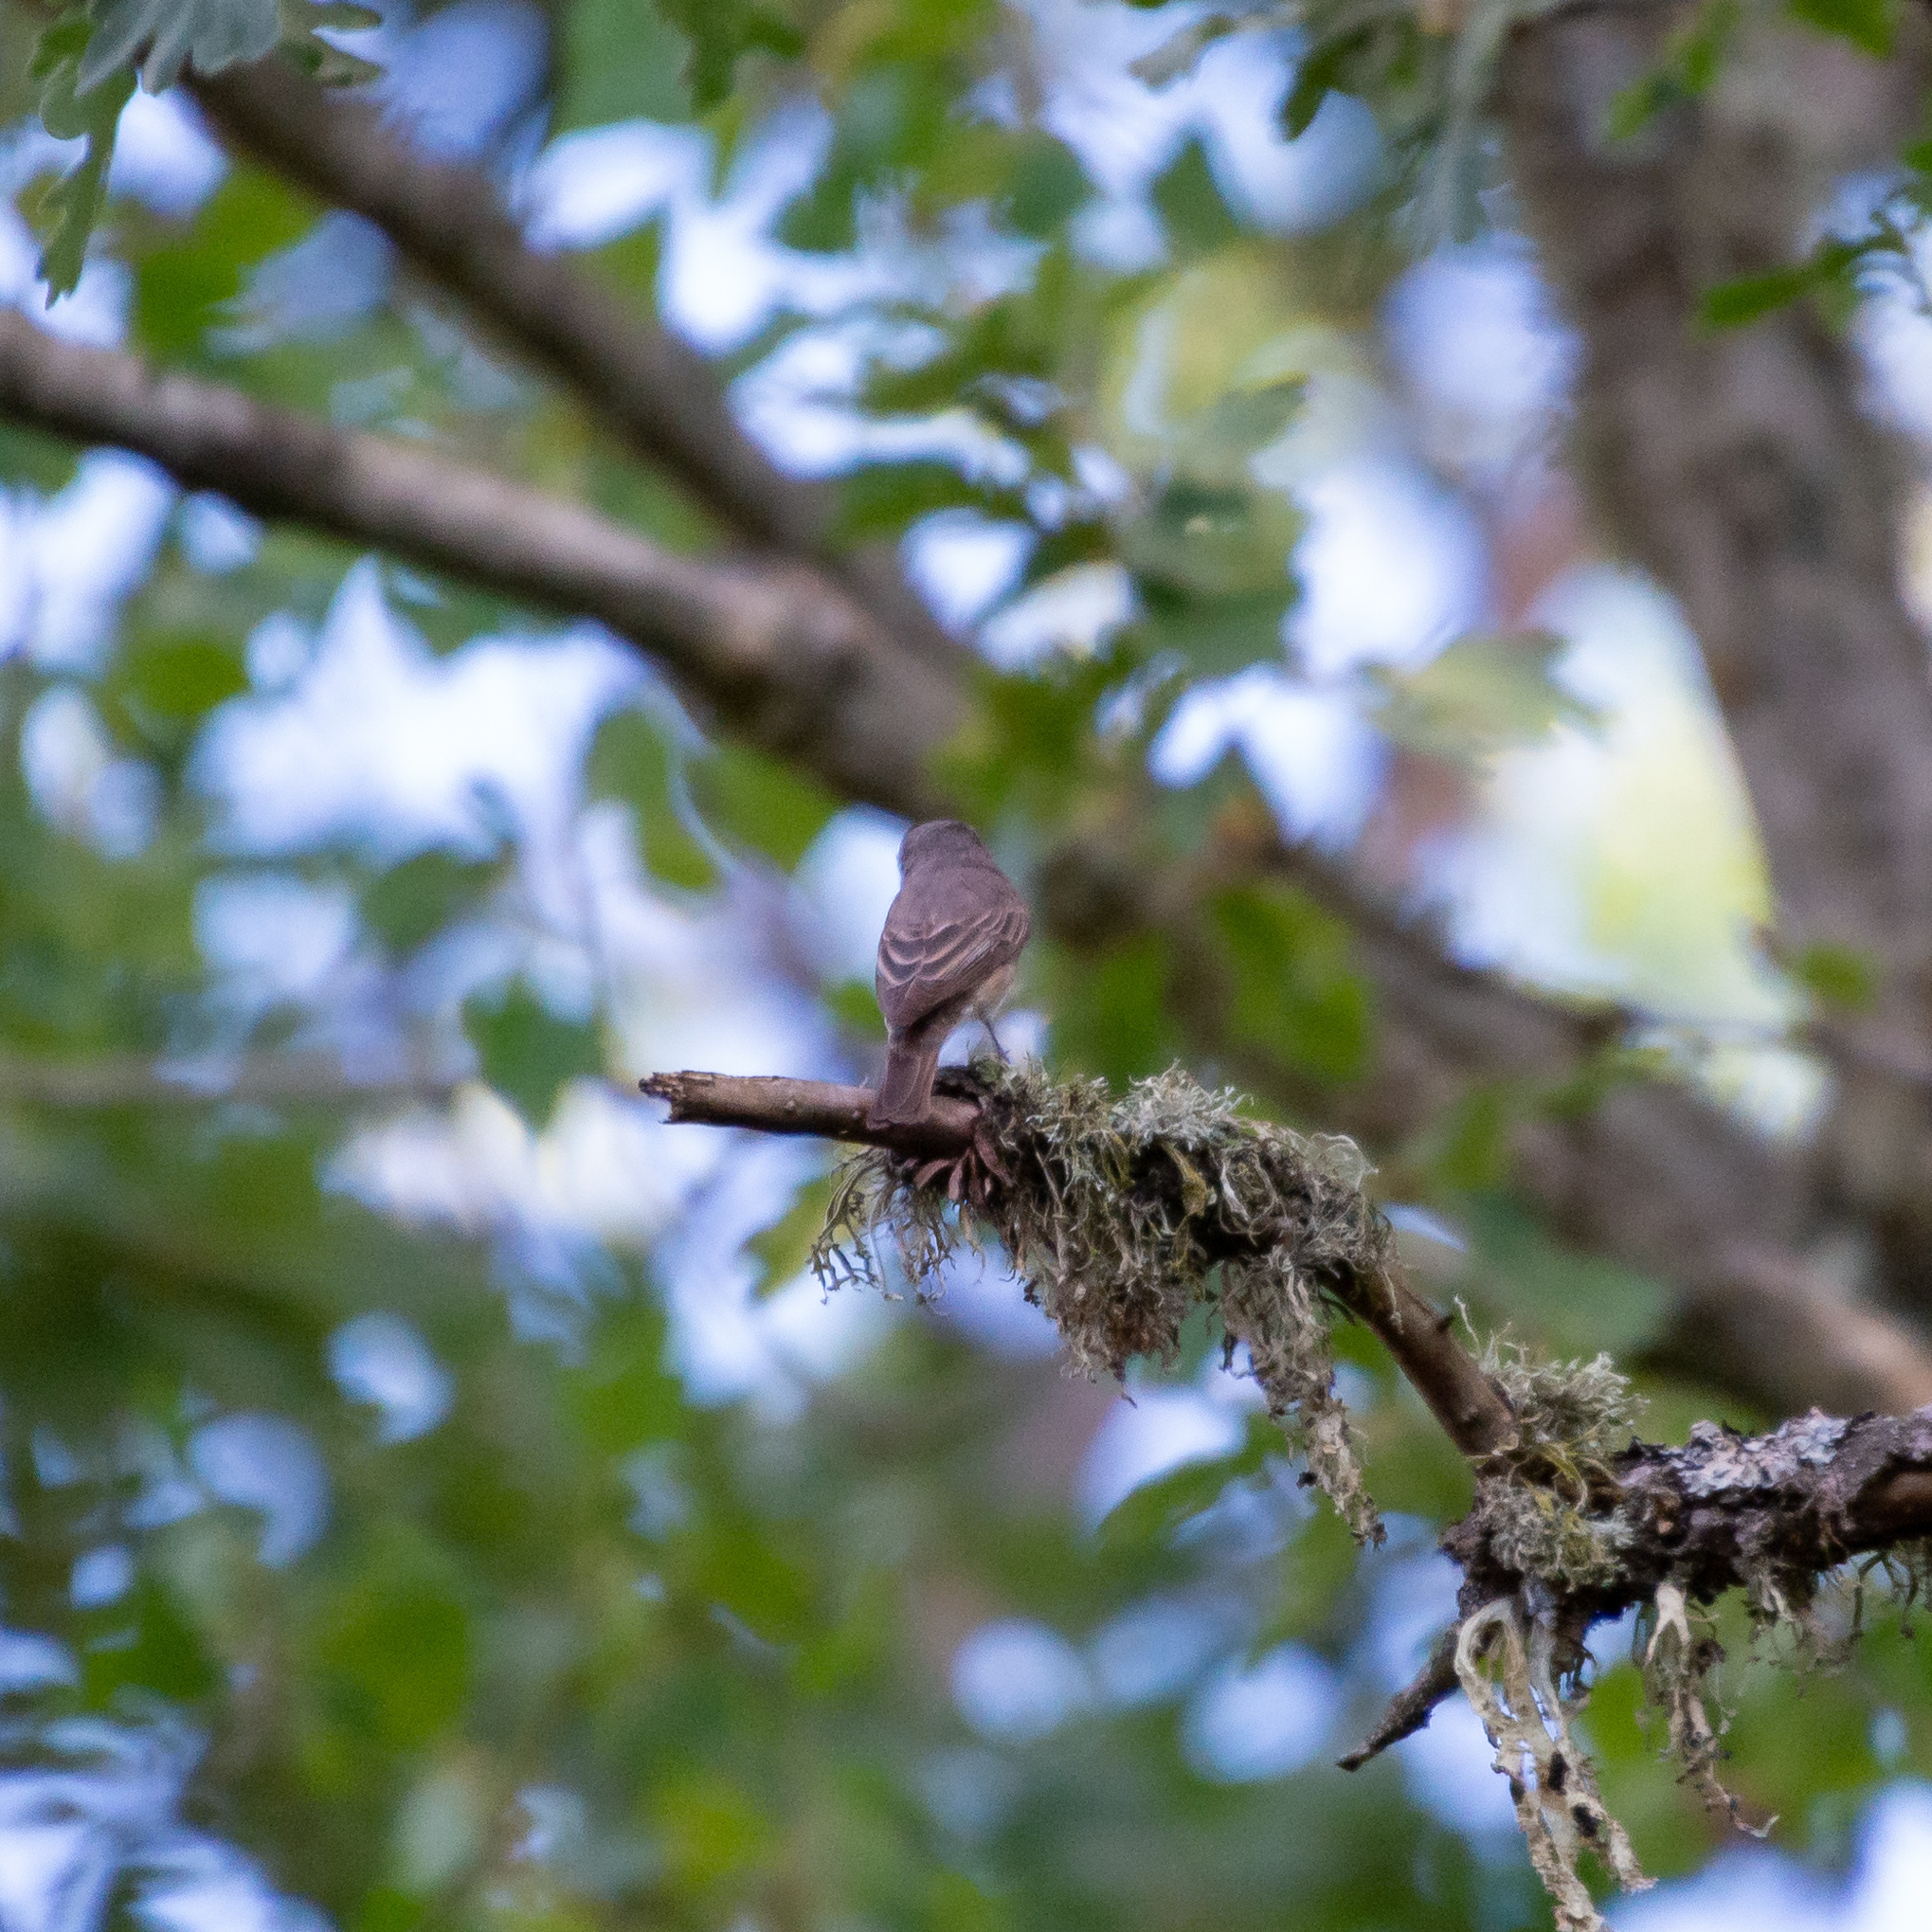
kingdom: Animalia
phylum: Chordata
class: Aves
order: Passeriformes
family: Muscicapidae
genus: Muscicapa
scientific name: Muscicapa striata
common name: Spotted flycatcher
